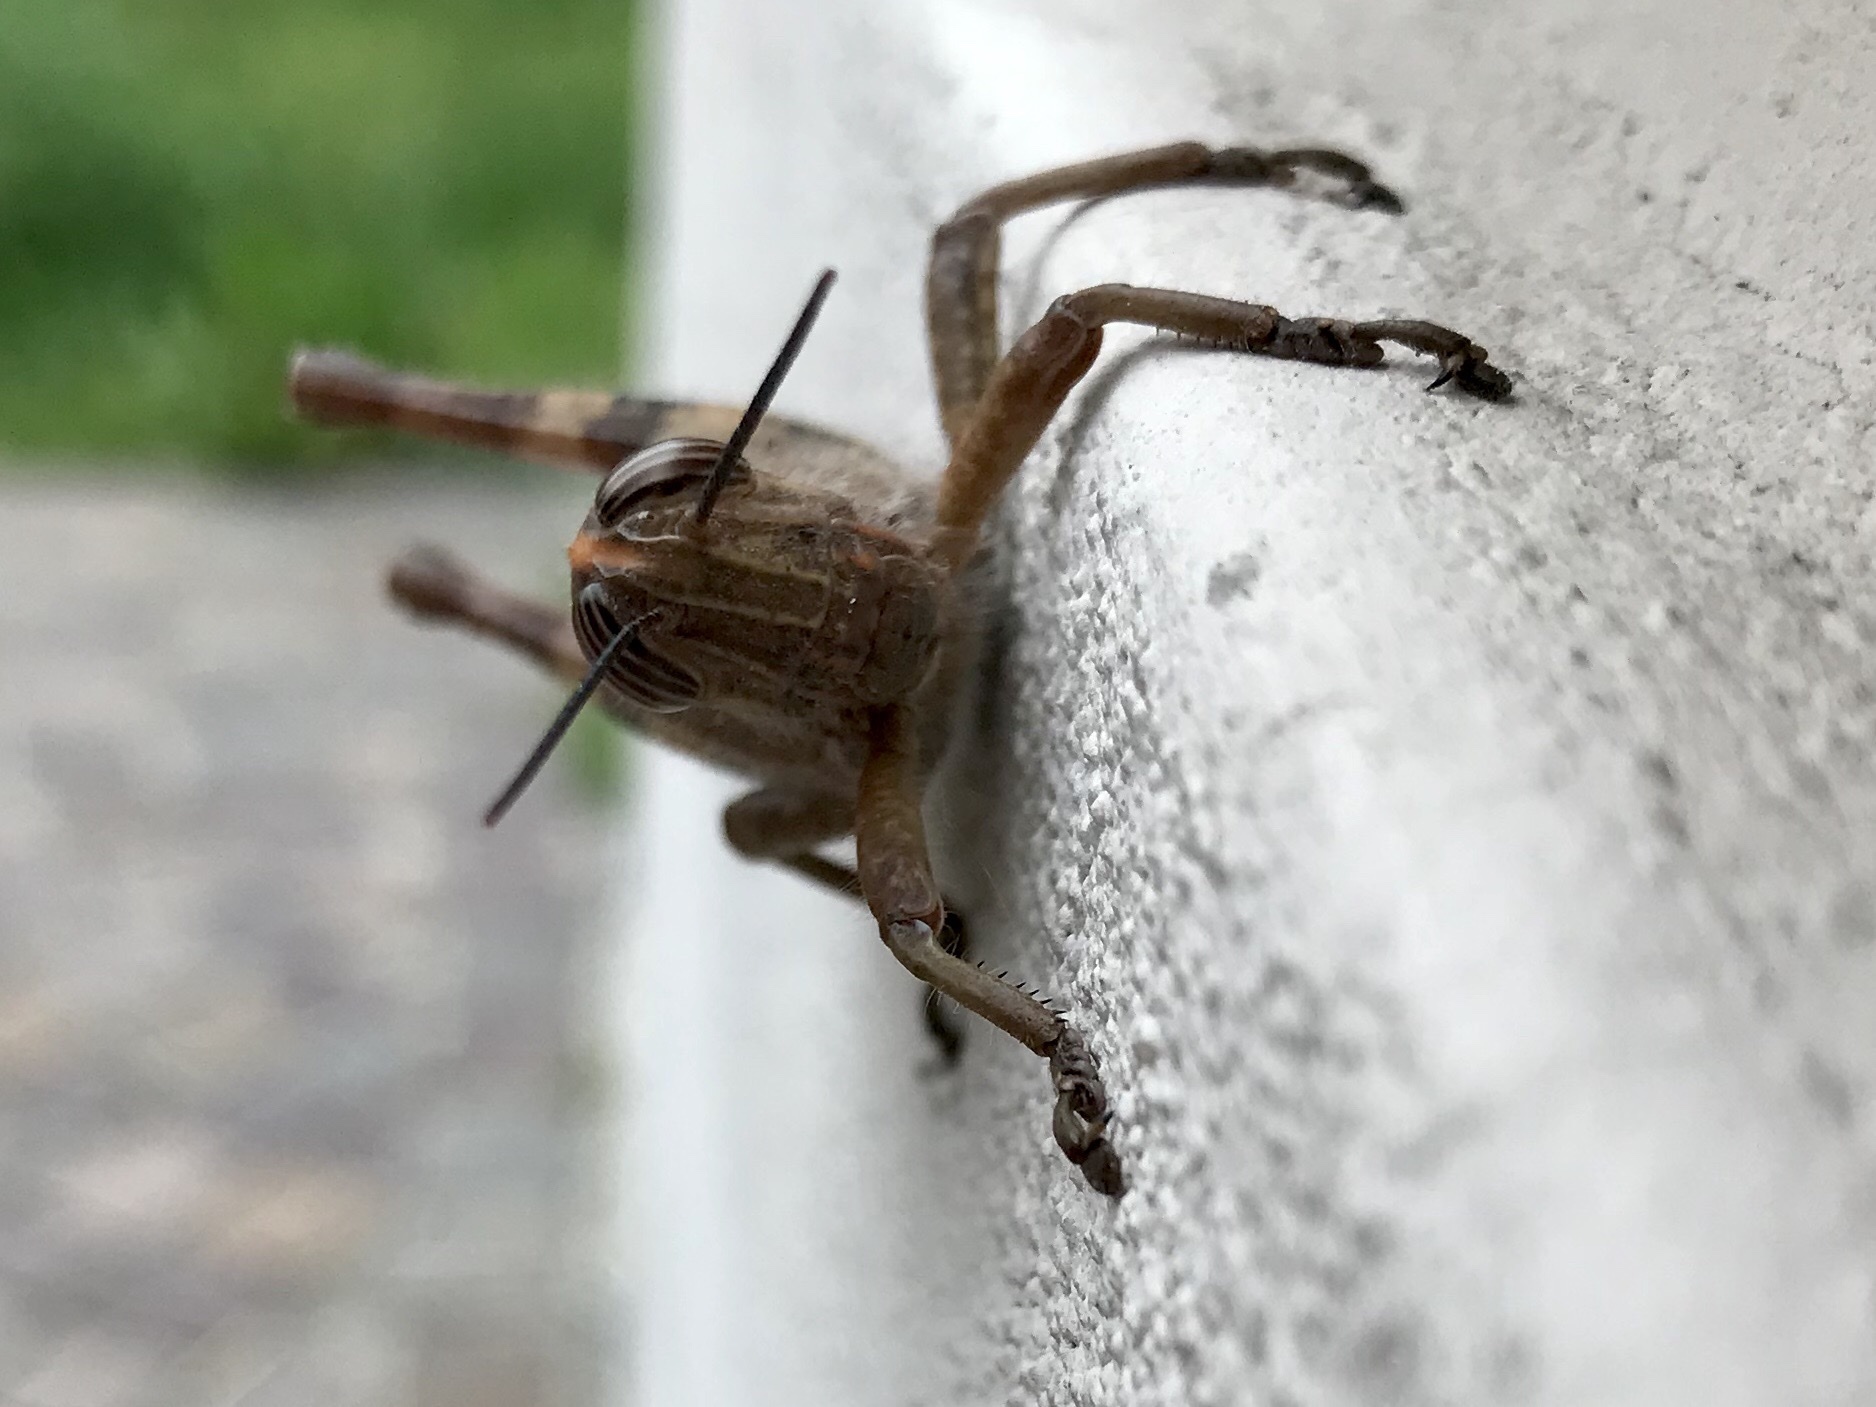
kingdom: Animalia
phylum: Arthropoda
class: Insecta
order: Orthoptera
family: Acrididae
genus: Anacridium
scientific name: Anacridium aegyptium
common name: Egyptian grasshopper
